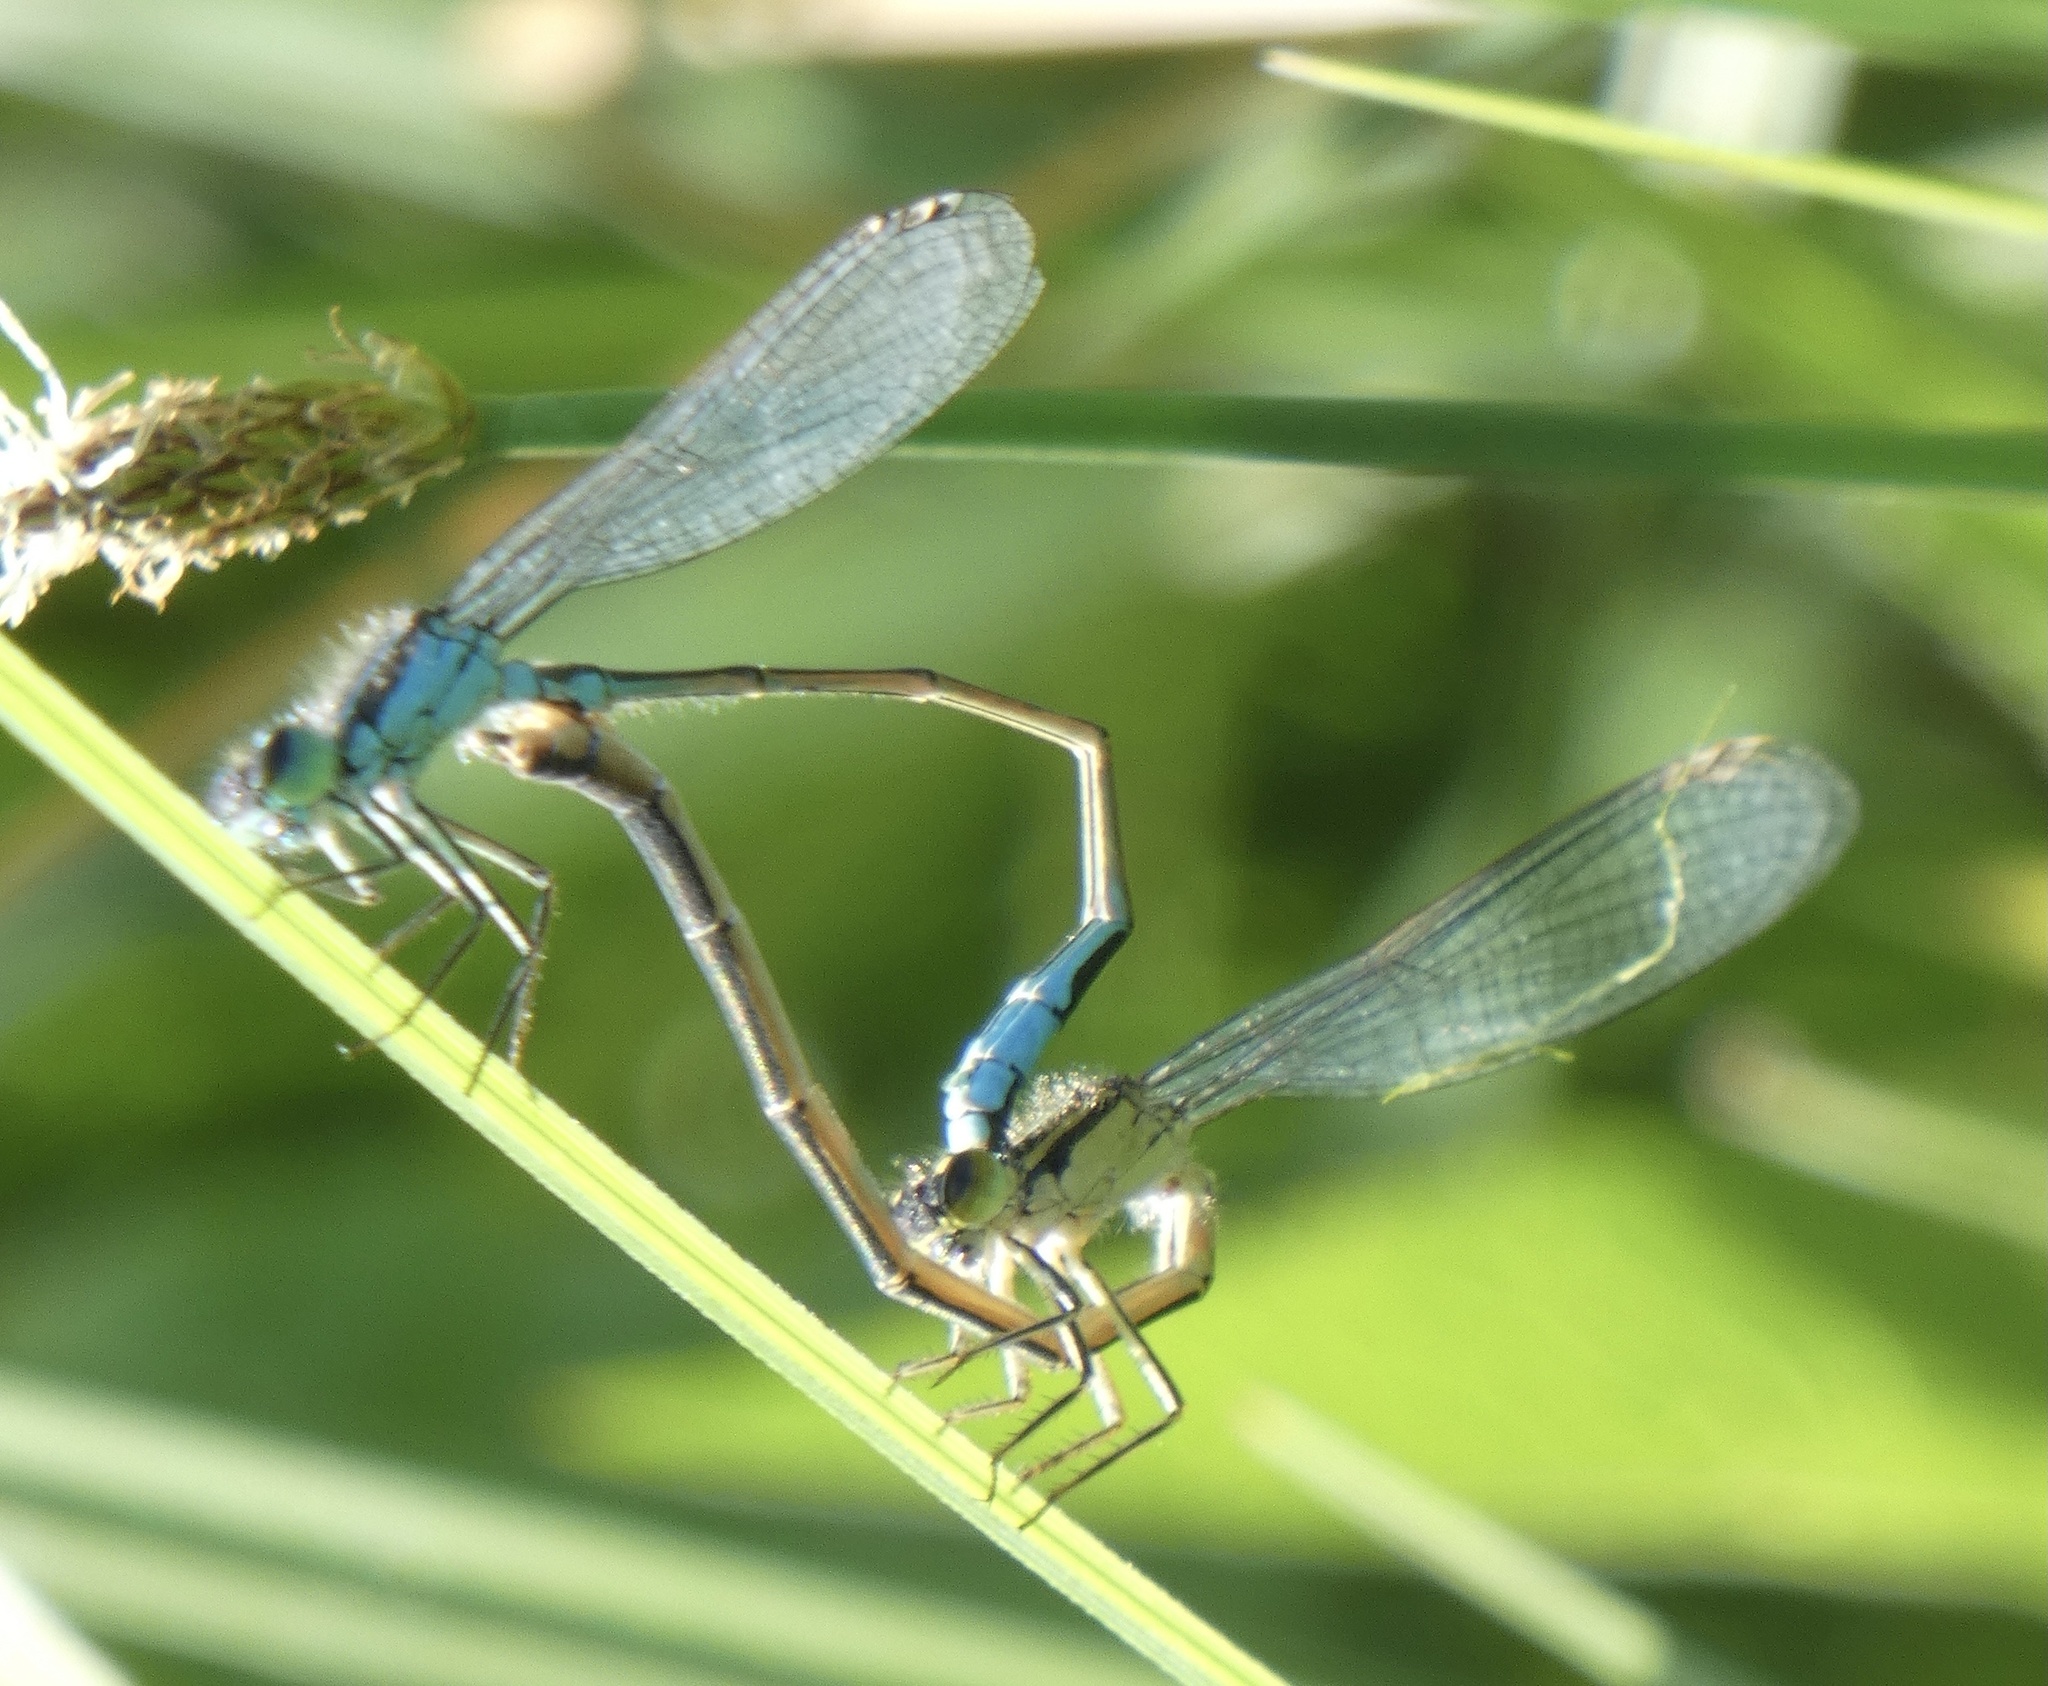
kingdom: Animalia
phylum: Arthropoda
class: Insecta
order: Odonata
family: Coenagrionidae
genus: Ischnura
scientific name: Ischnura elegans
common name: Blue-tailed damselfly
